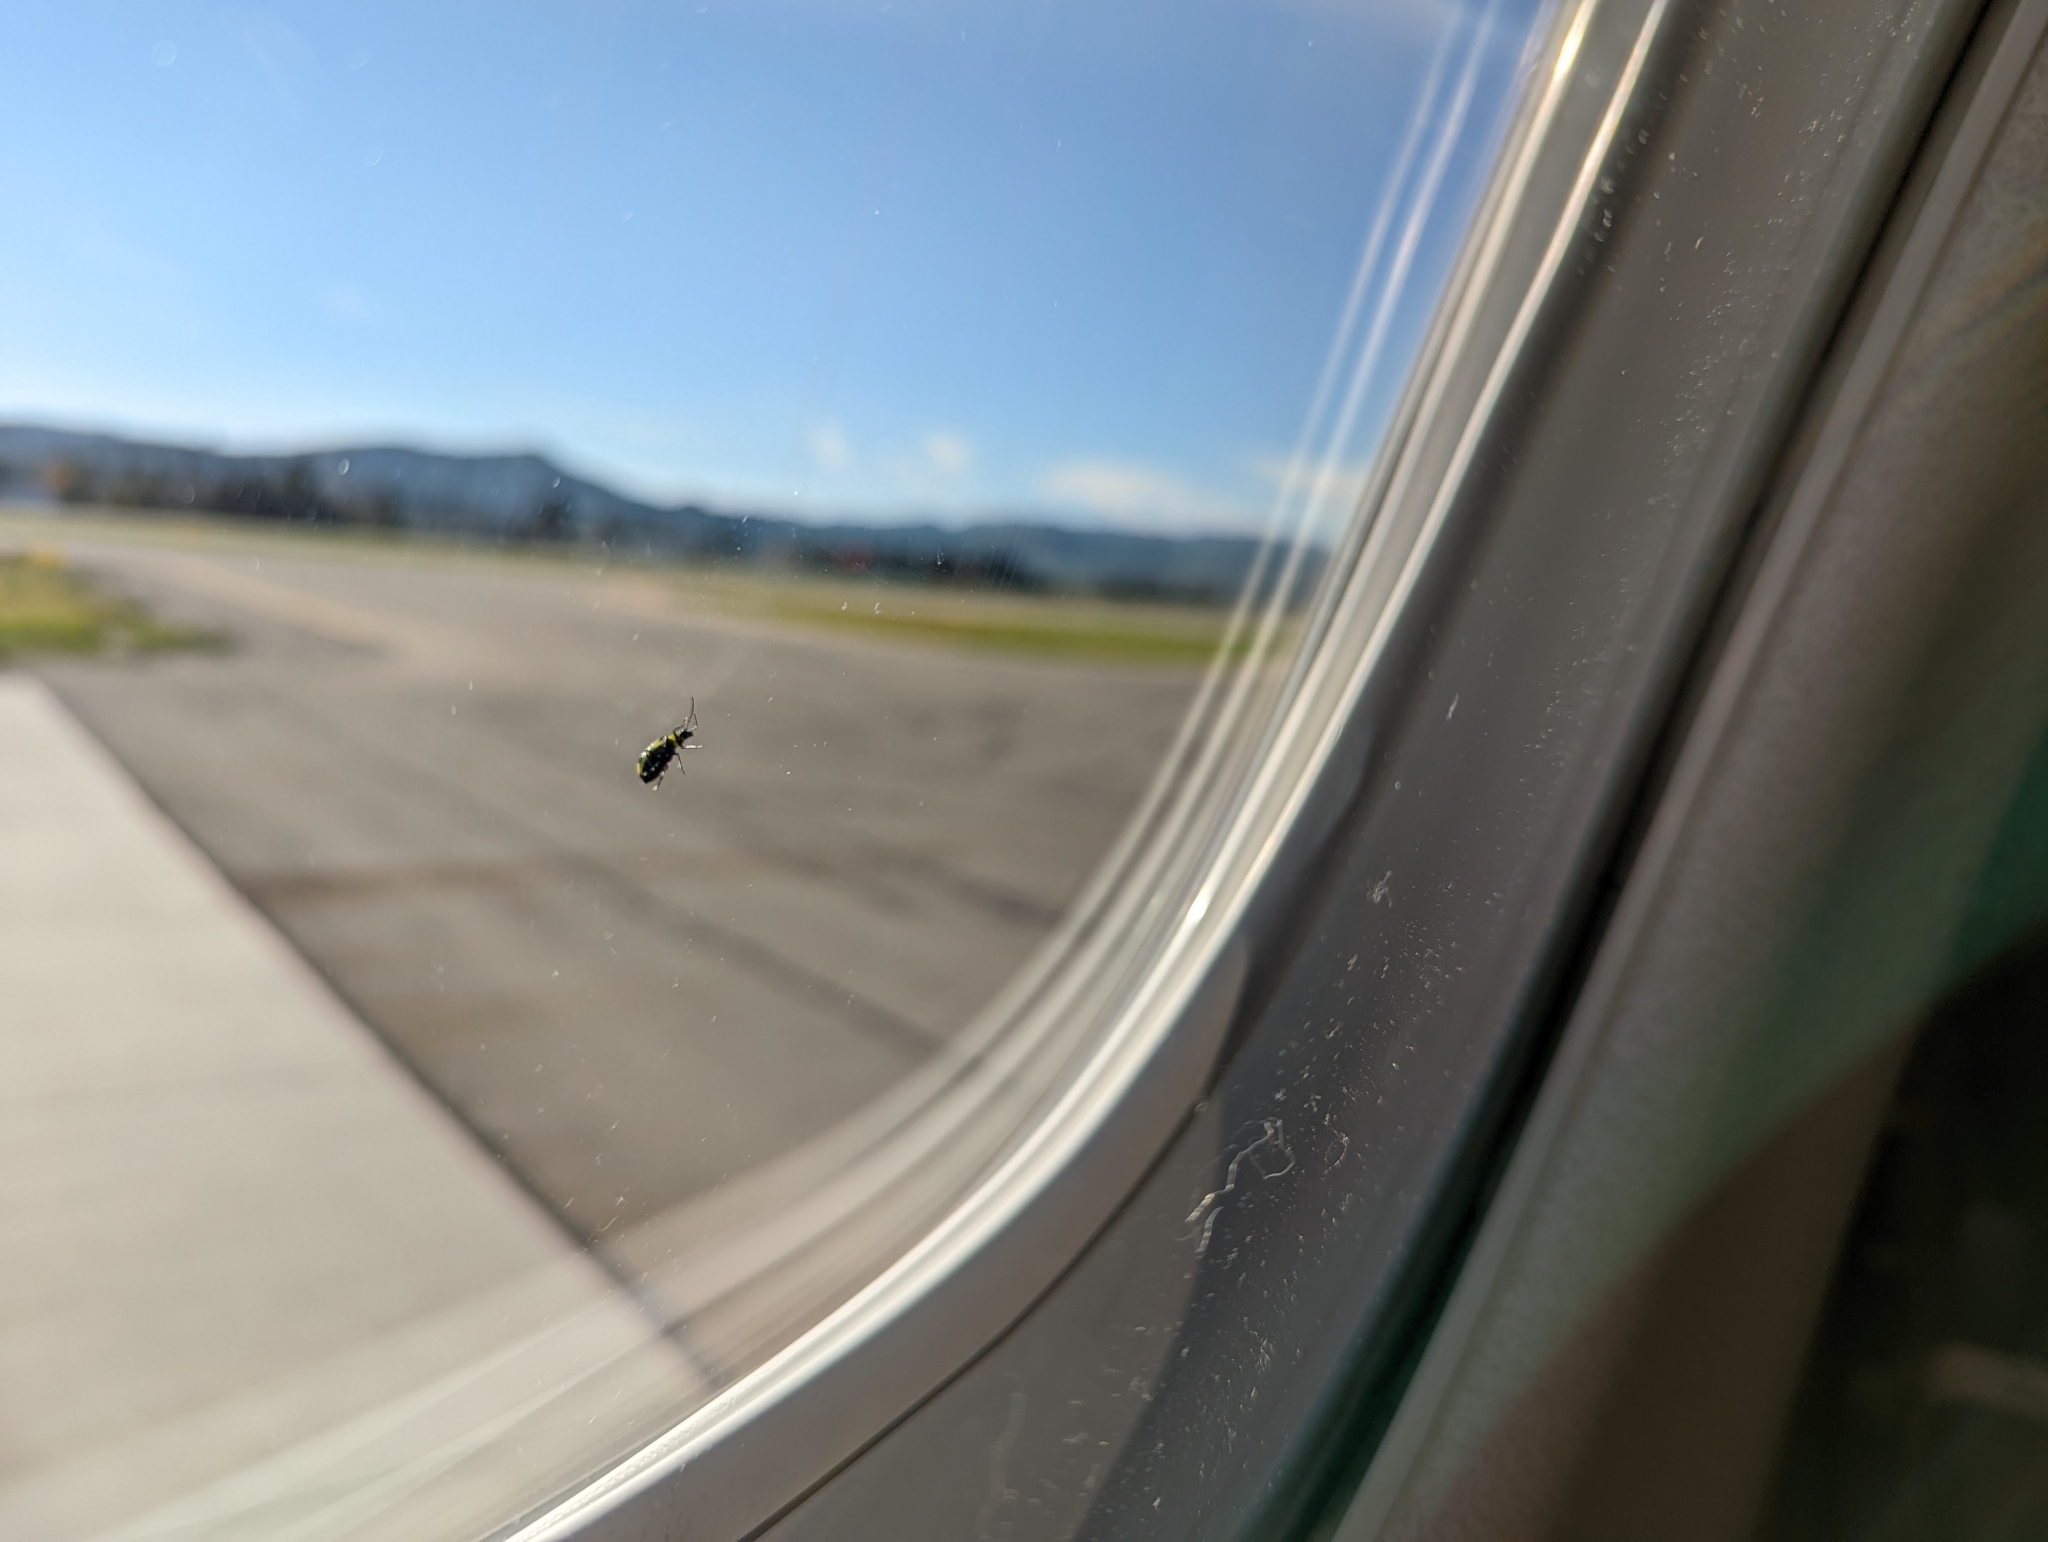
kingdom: Animalia
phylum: Arthropoda
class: Insecta
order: Coleoptera
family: Chrysomelidae
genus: Diabrotica
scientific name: Diabrotica undecimpunctata
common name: Spotted cucumber beetle
